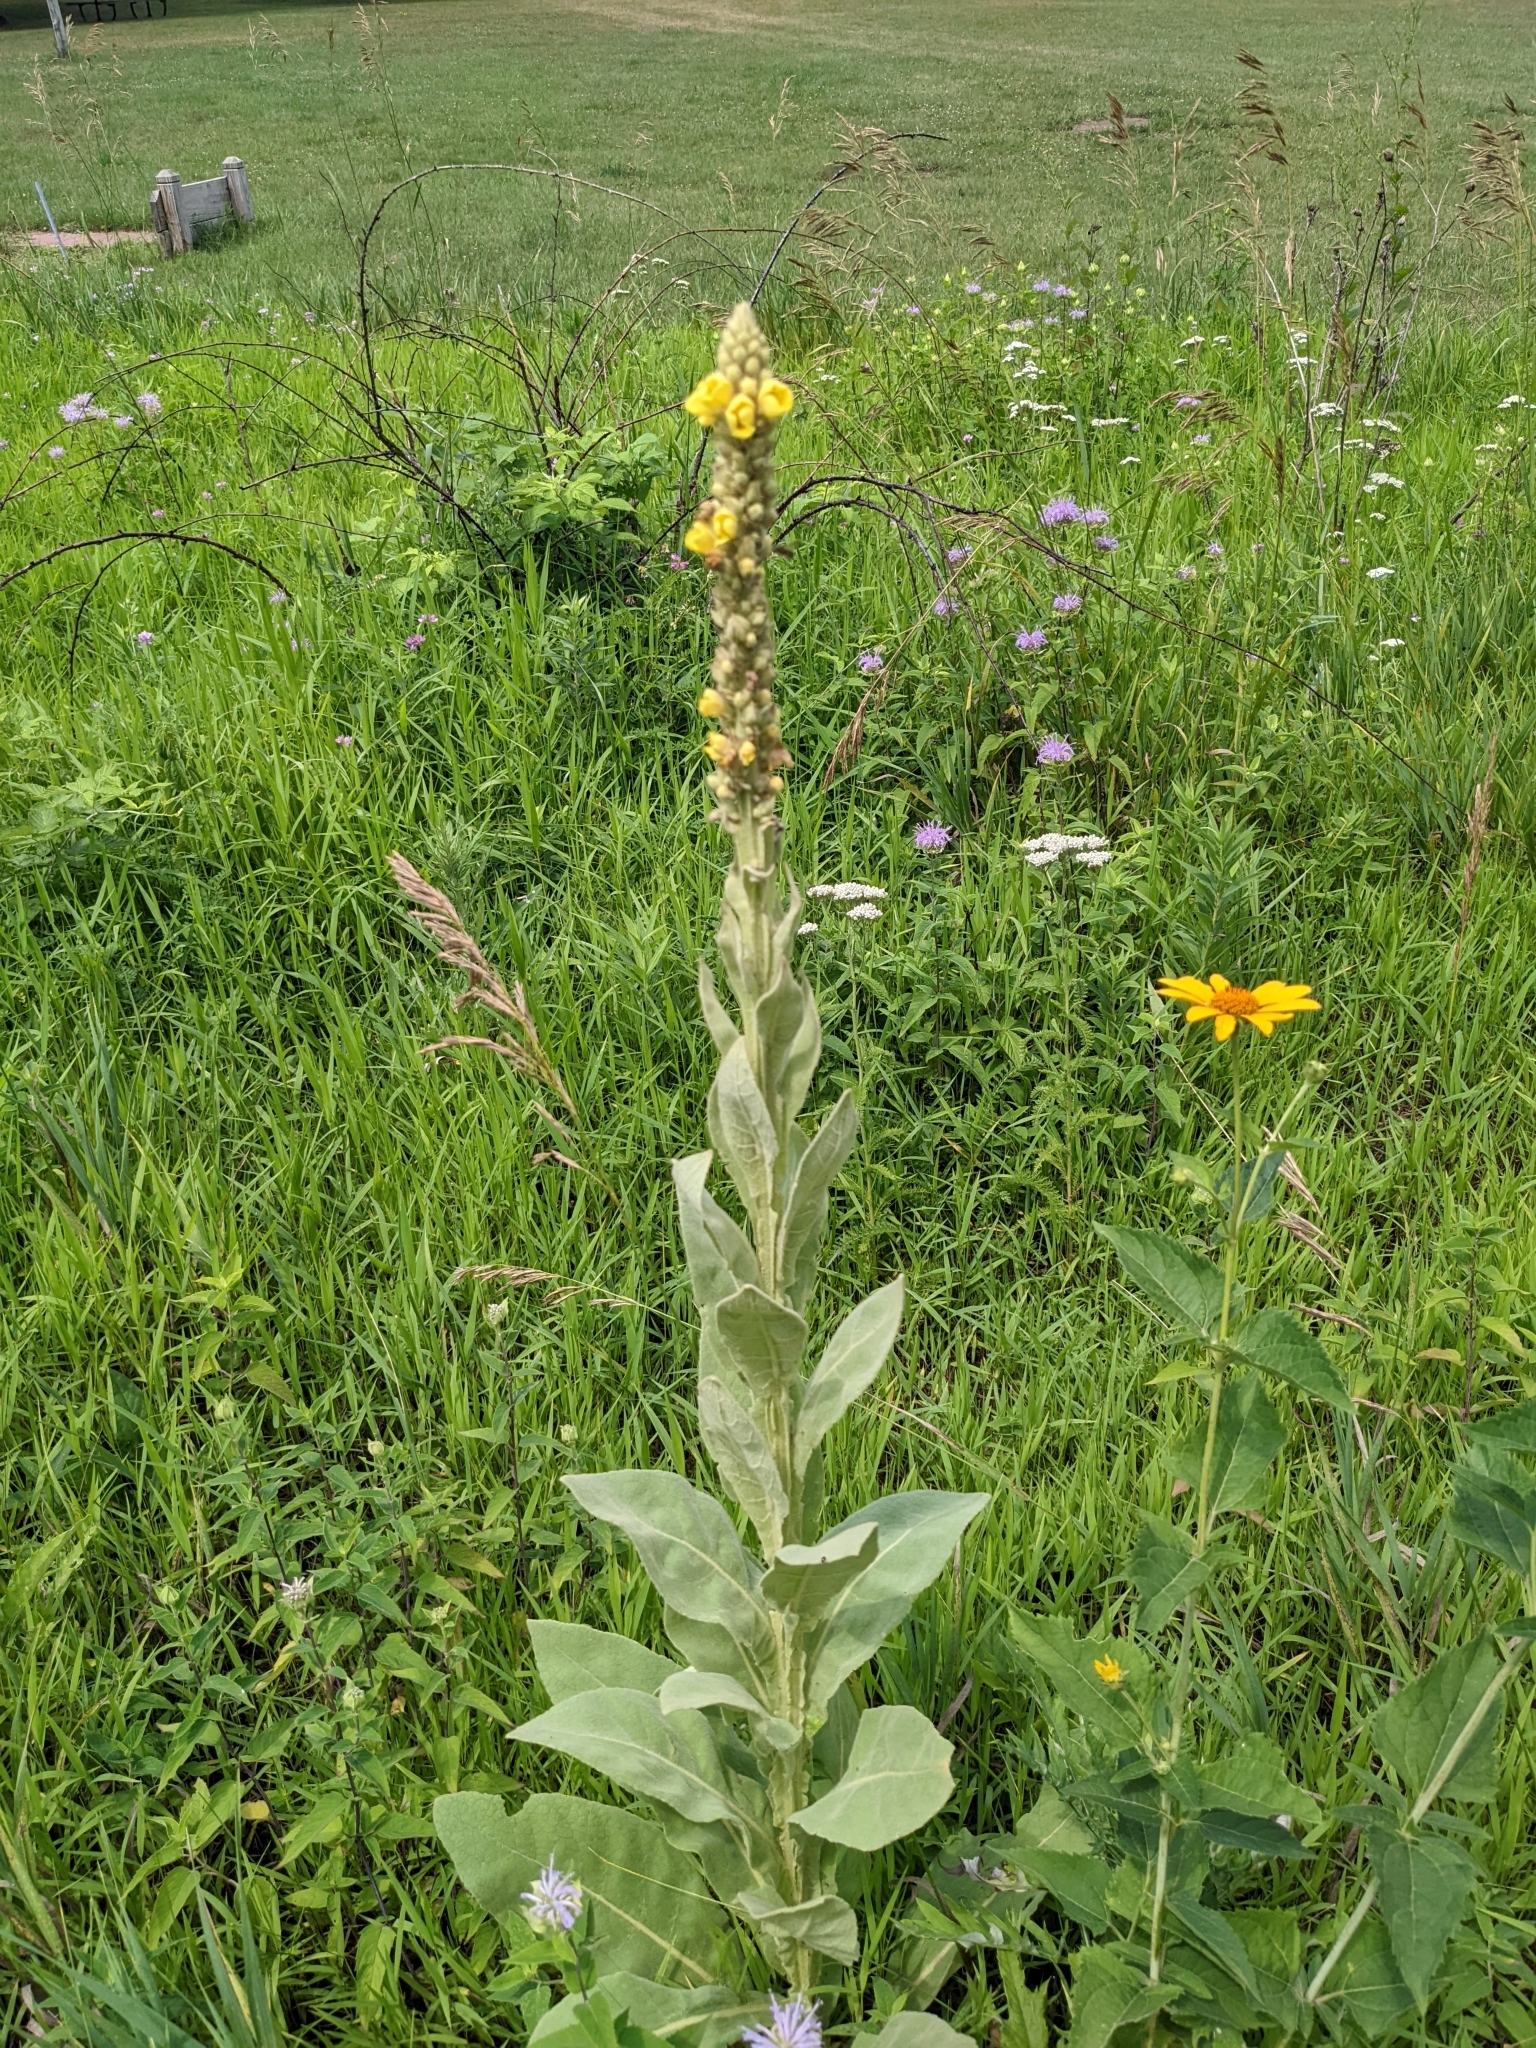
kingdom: Plantae
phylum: Tracheophyta
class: Magnoliopsida
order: Lamiales
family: Scrophulariaceae
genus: Verbascum
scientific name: Verbascum thapsus
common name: Common mullein
